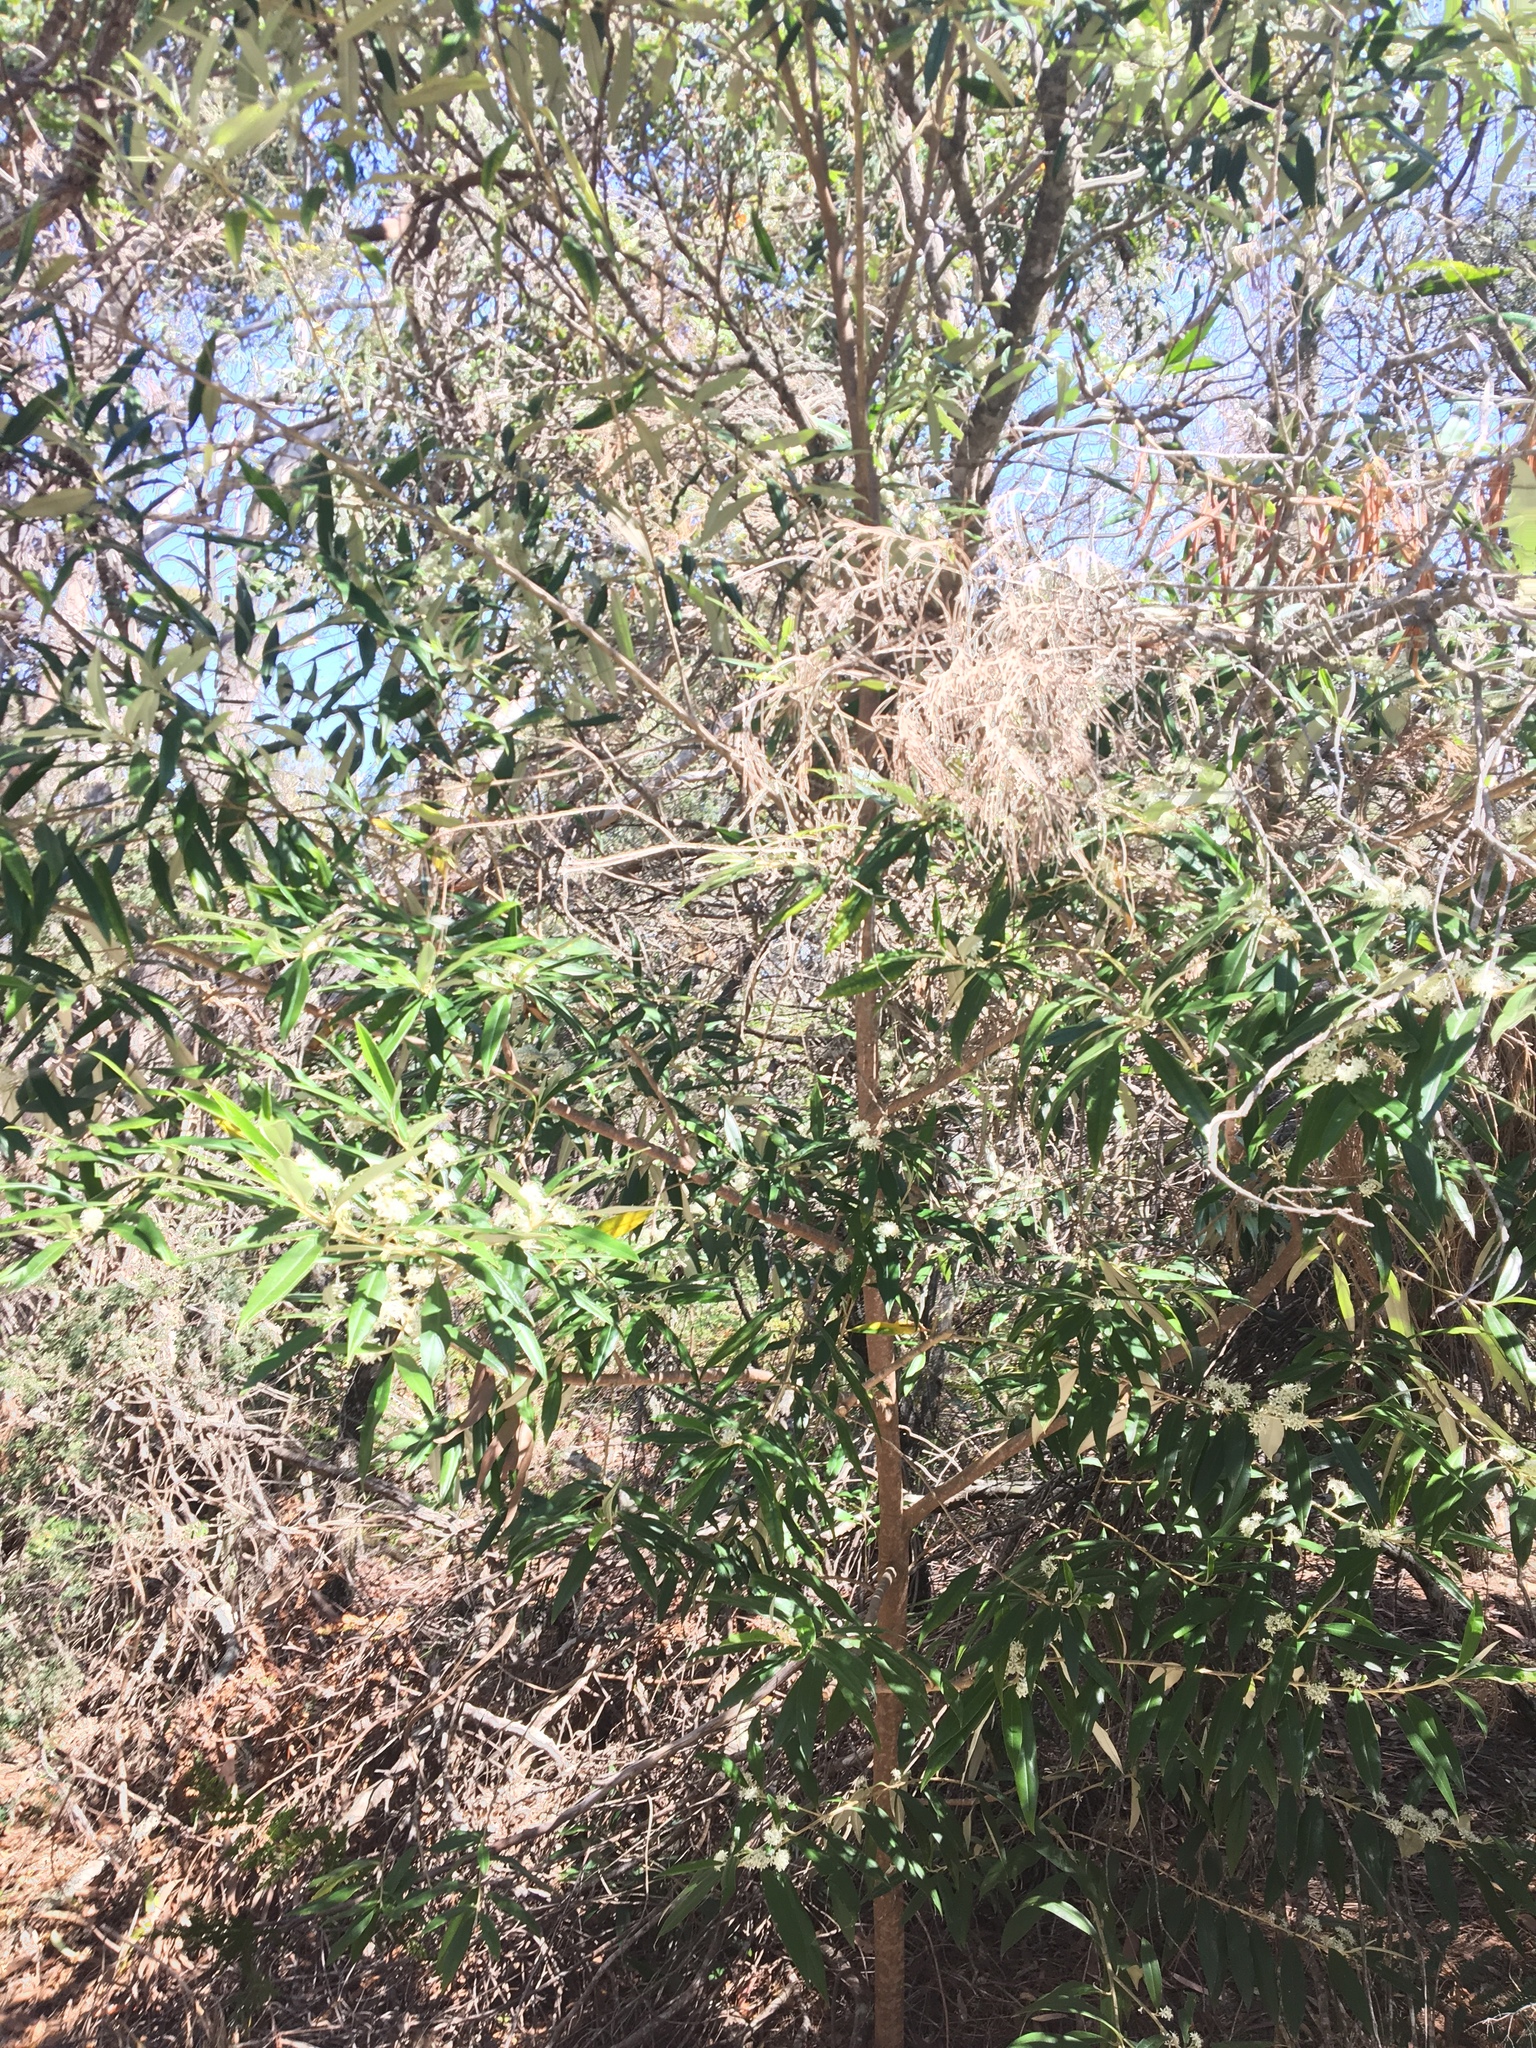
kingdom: Plantae
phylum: Tracheophyta
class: Magnoliopsida
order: Sapindales
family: Rutaceae
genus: Nematolepis
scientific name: Nematolepis squamea
